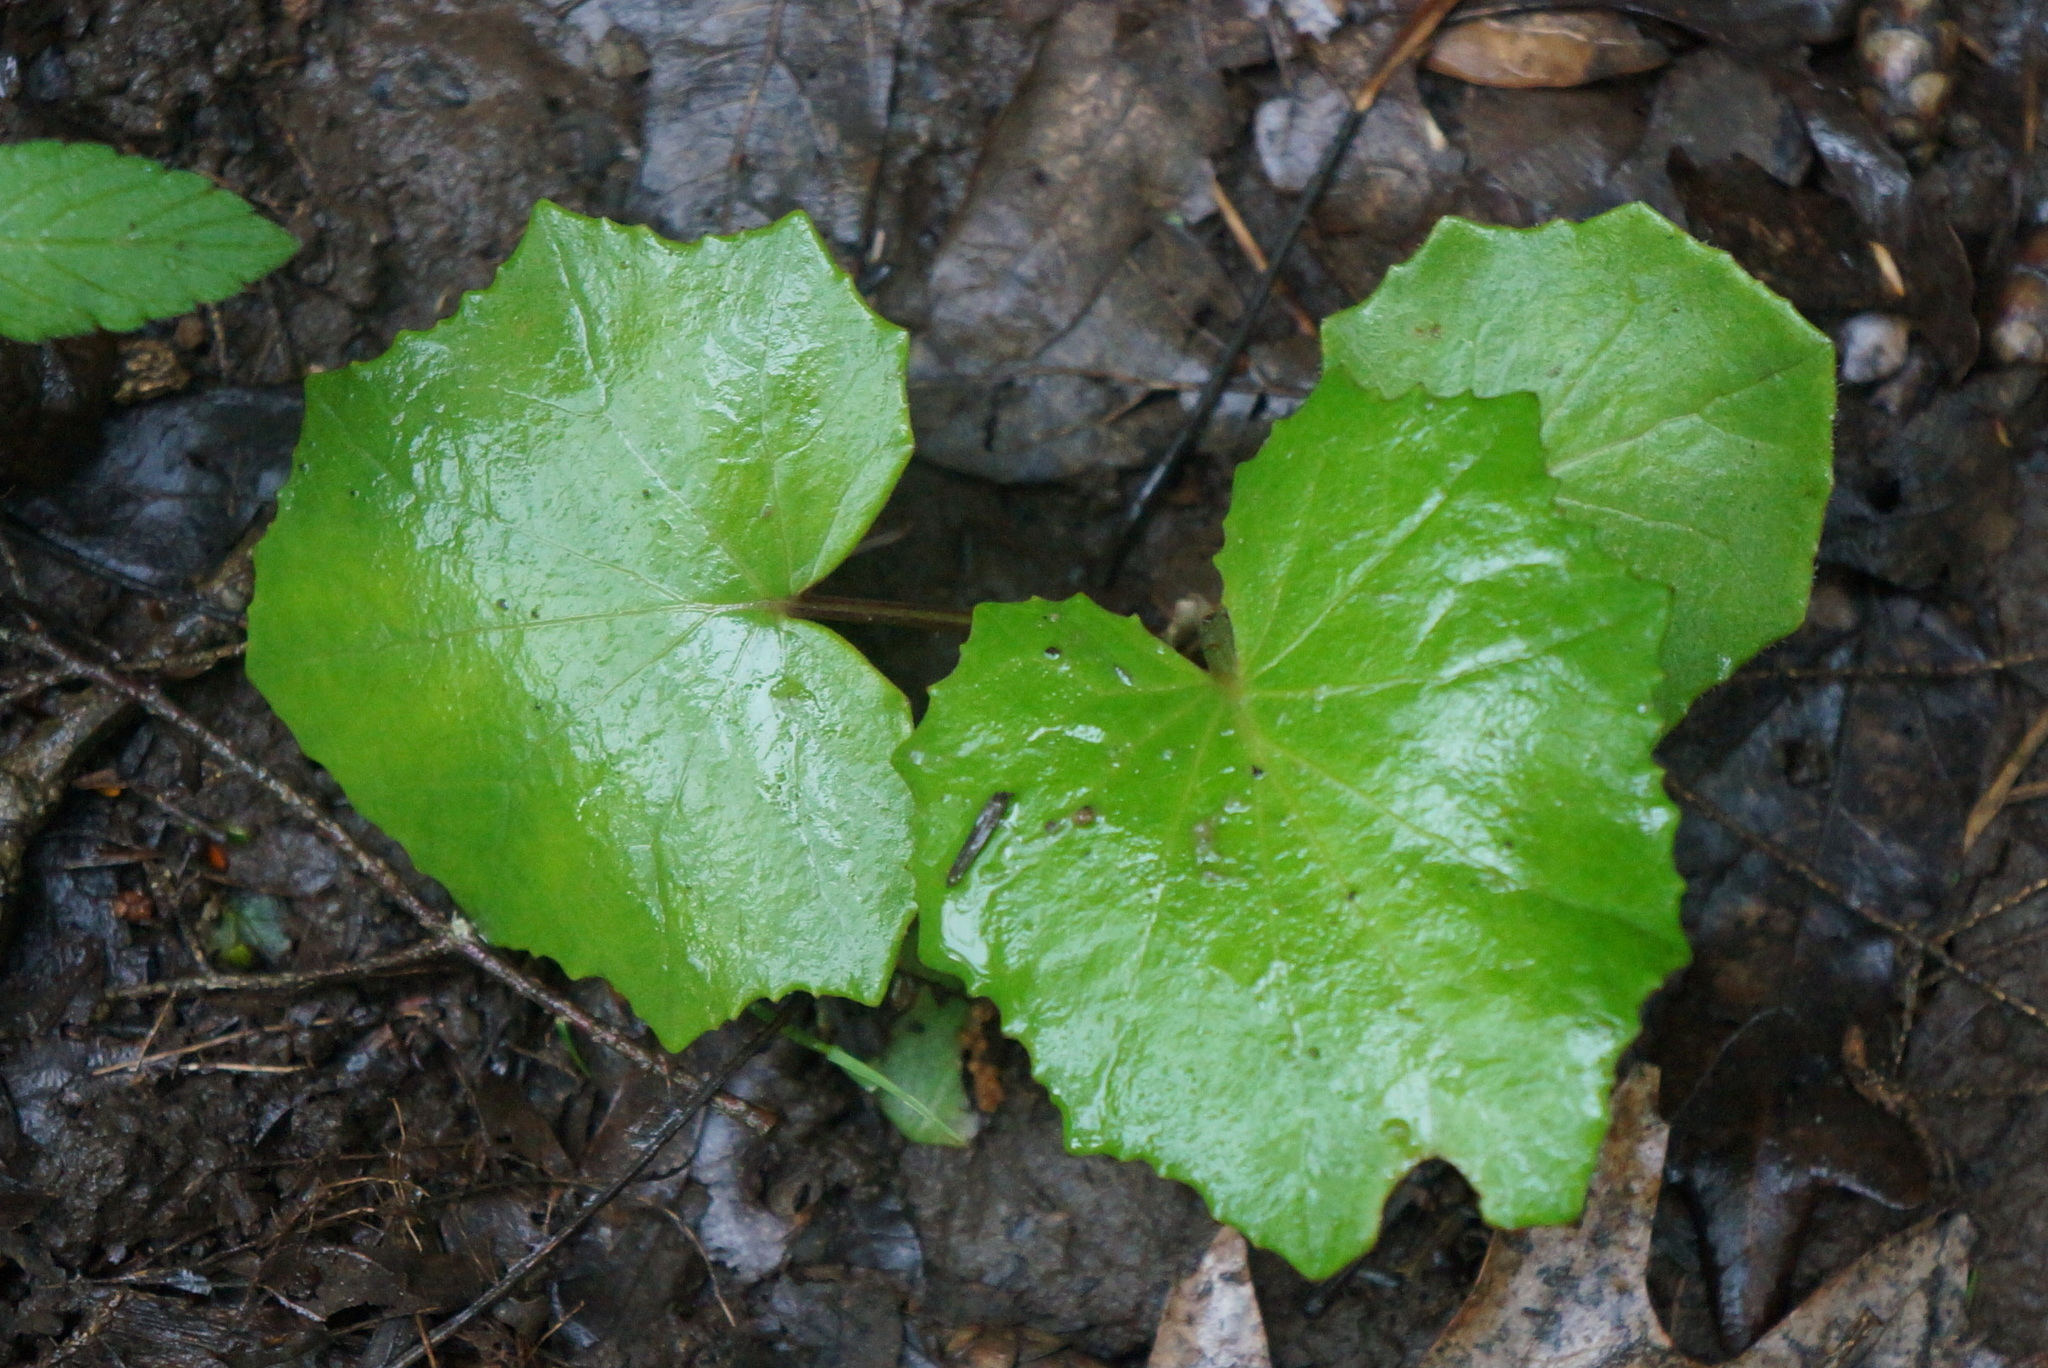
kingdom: Plantae
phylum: Tracheophyta
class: Magnoliopsida
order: Asterales
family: Asteraceae
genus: Tussilago
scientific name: Tussilago farfara
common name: Coltsfoot
